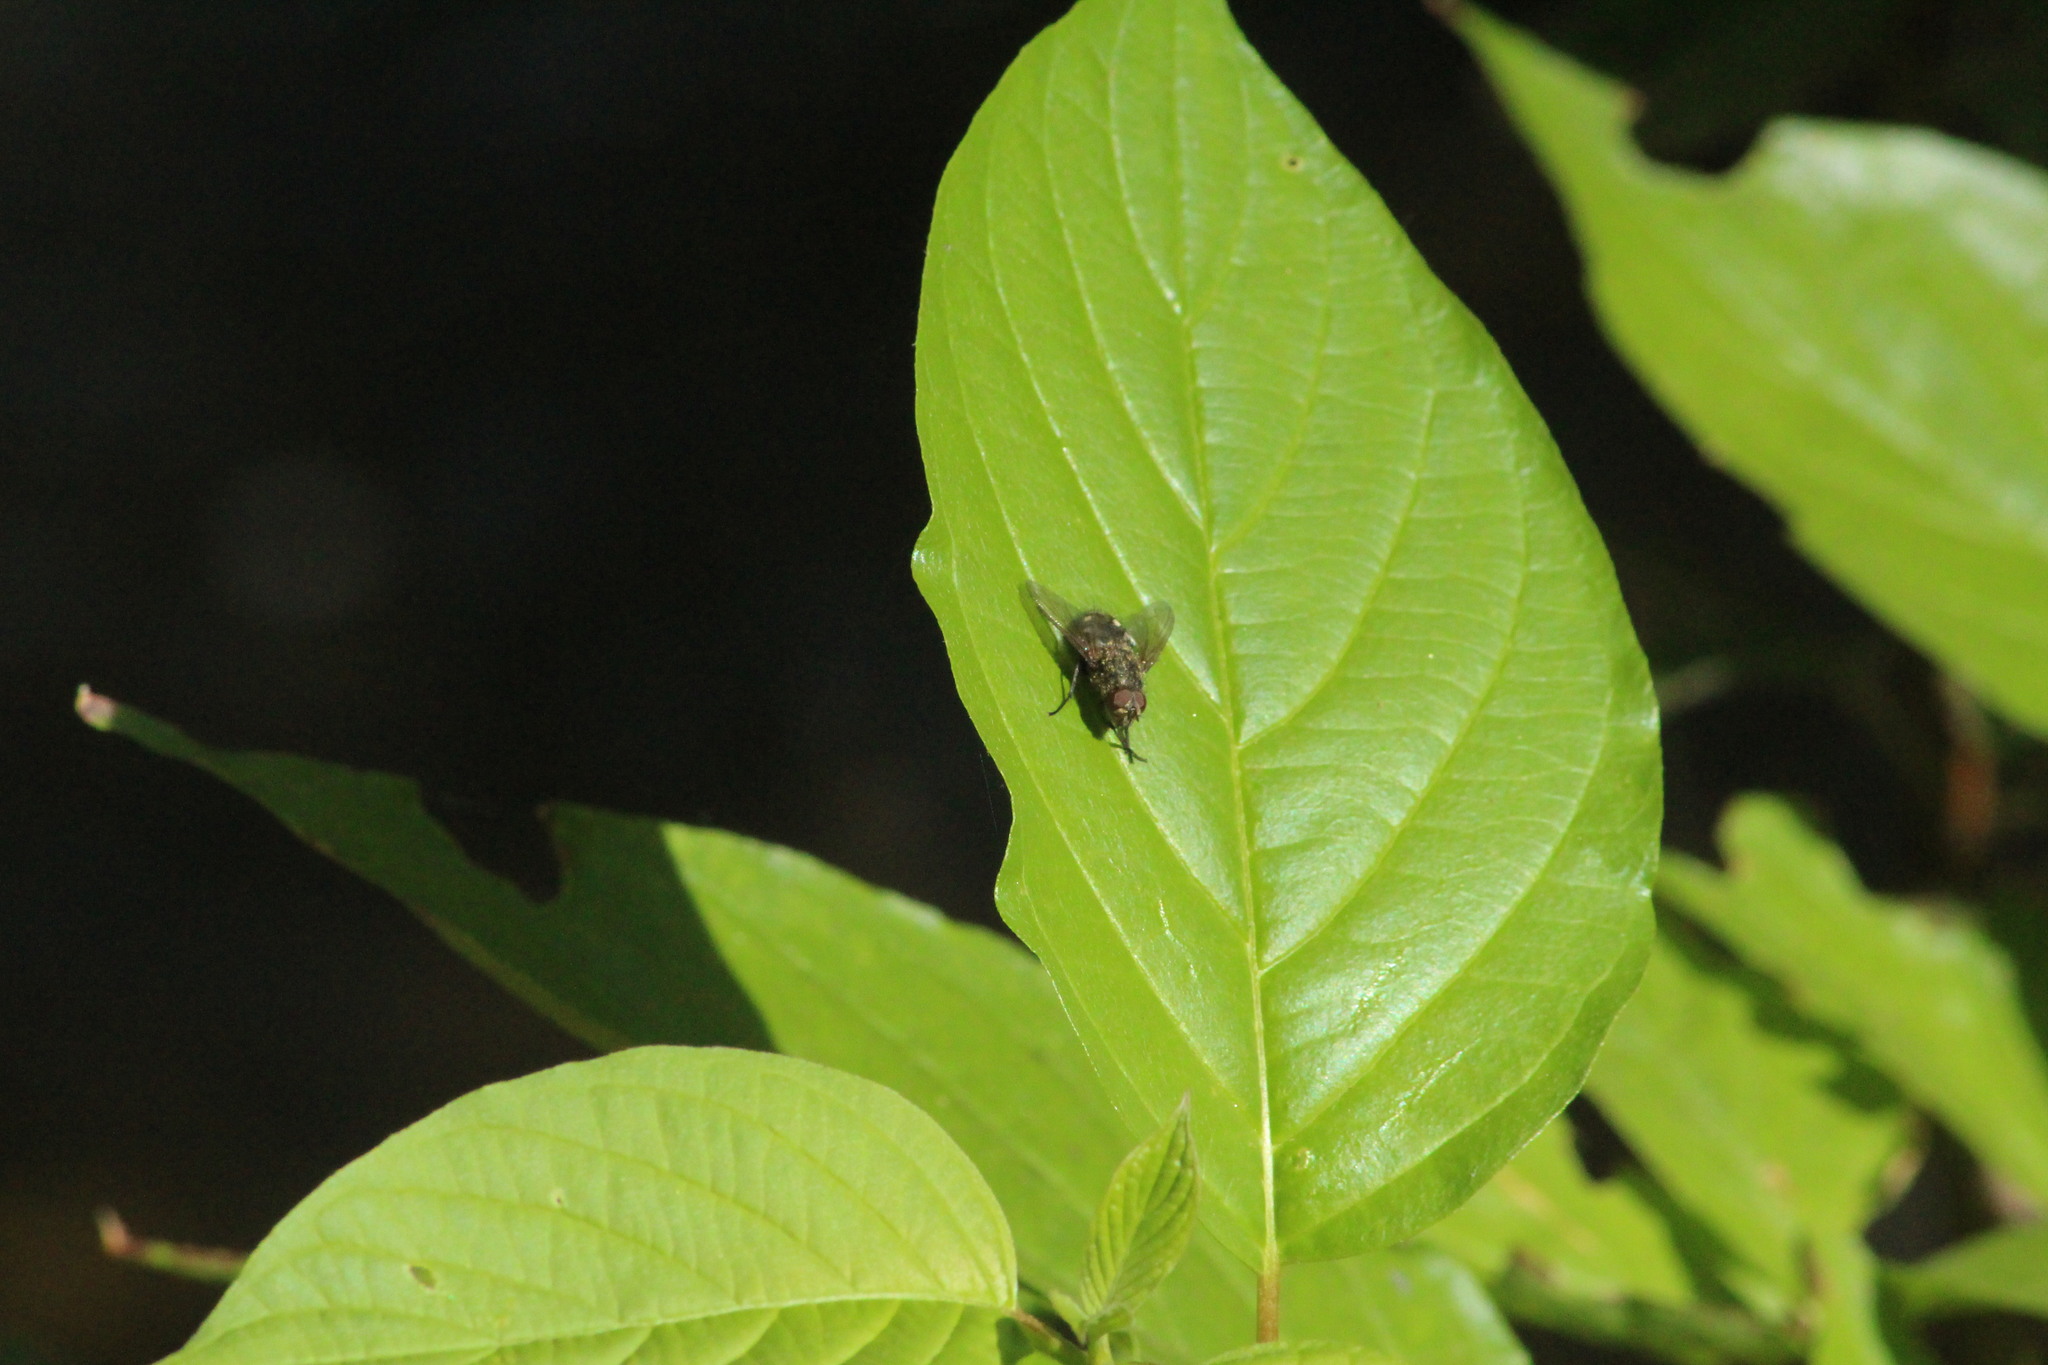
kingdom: Animalia
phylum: Arthropoda
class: Insecta
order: Diptera
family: Polleniidae
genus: Pollenia
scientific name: Pollenia
